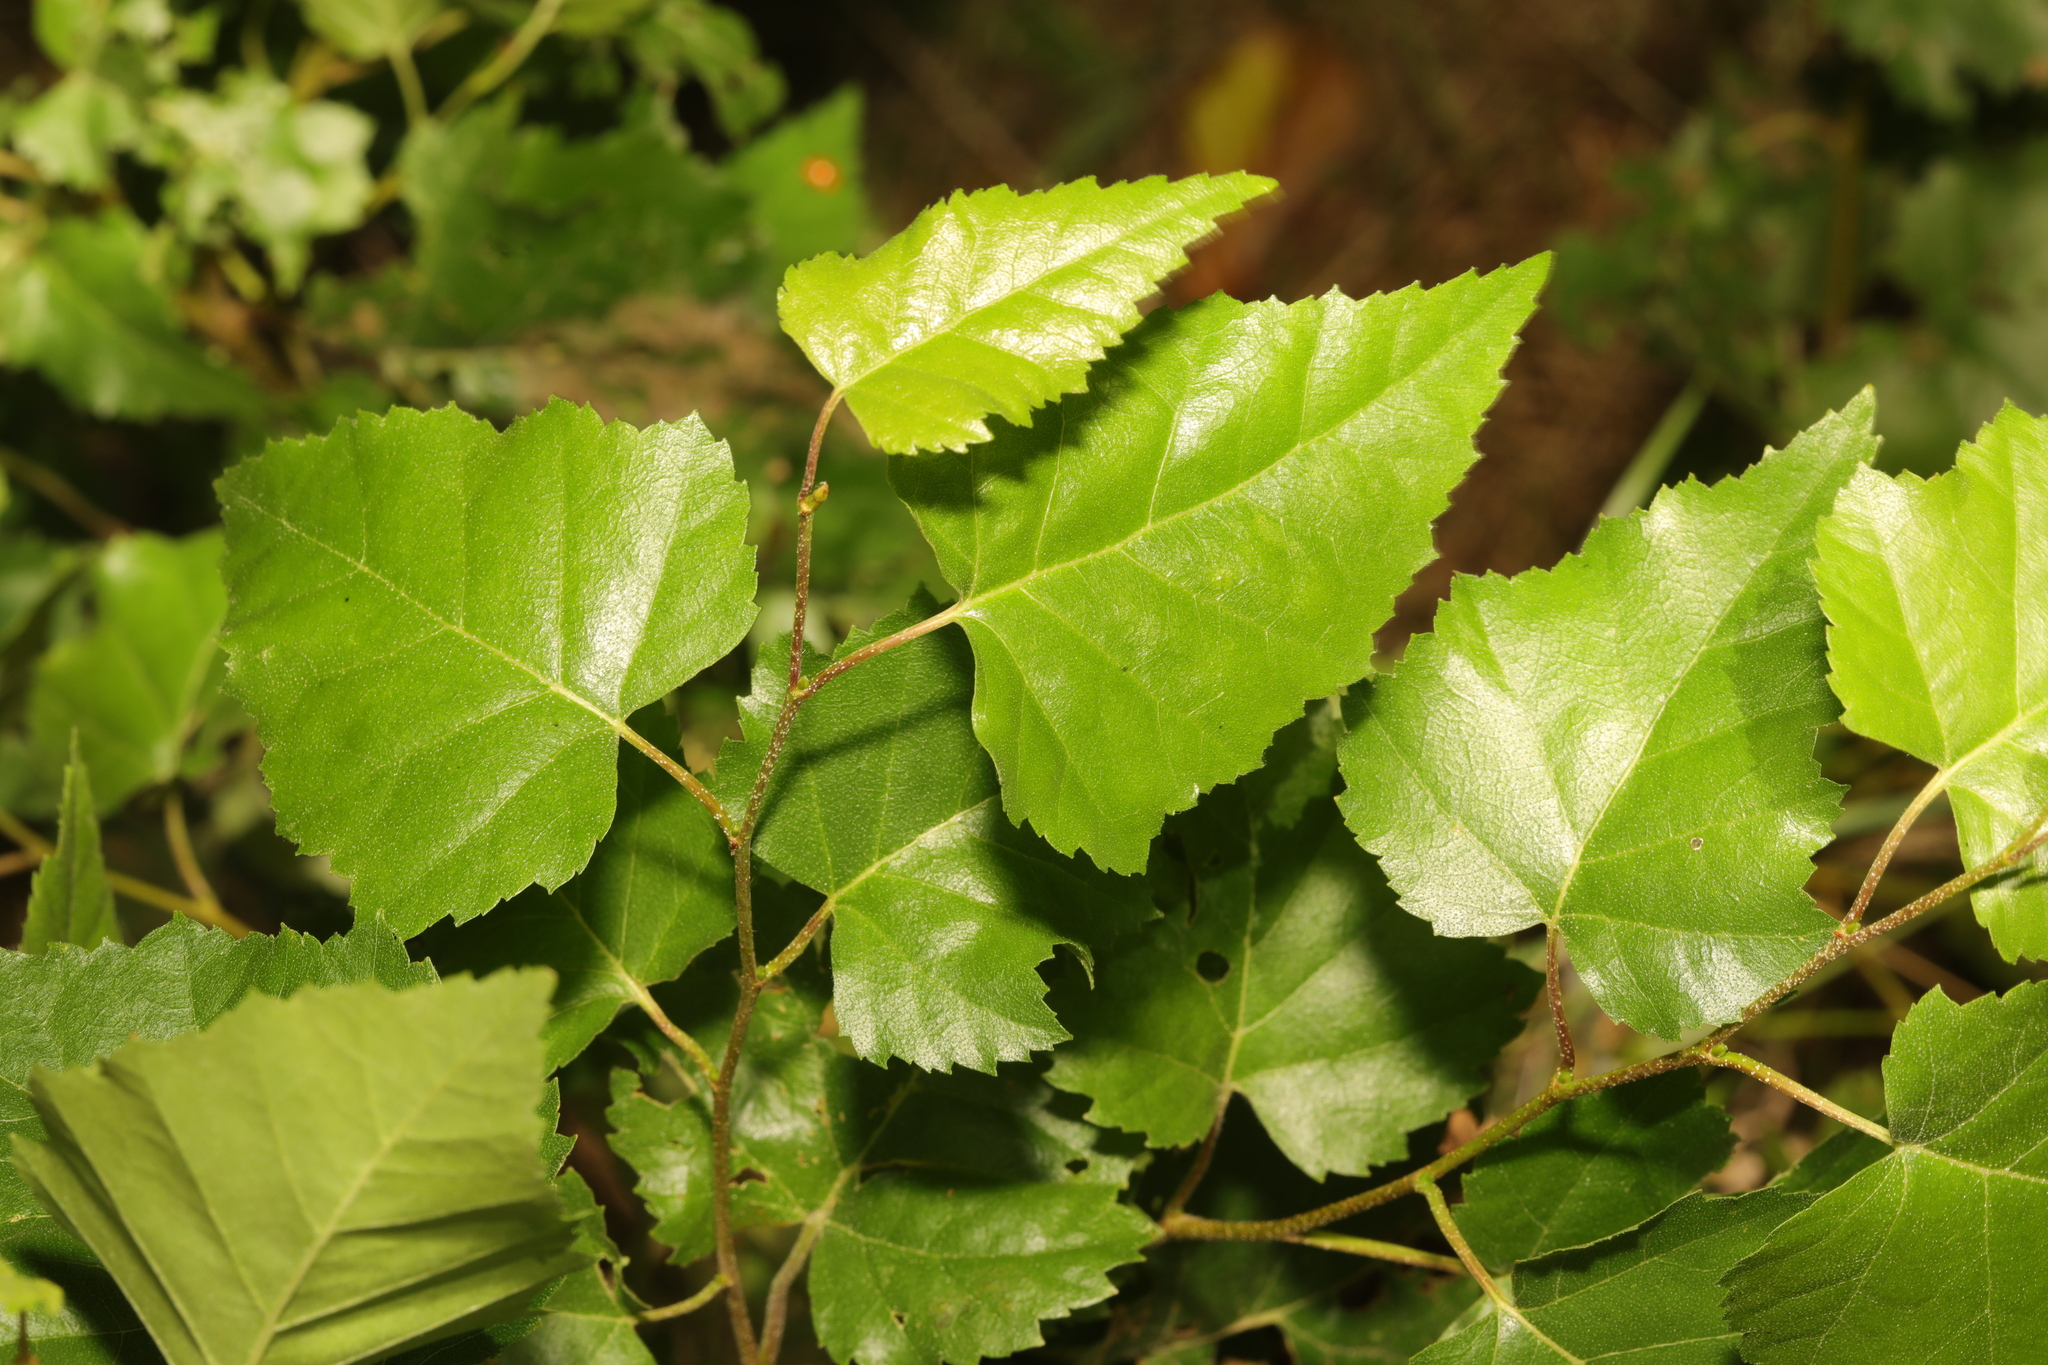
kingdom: Plantae
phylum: Tracheophyta
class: Magnoliopsida
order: Fagales
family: Betulaceae
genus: Betula
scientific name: Betula pendula
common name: Silver birch
